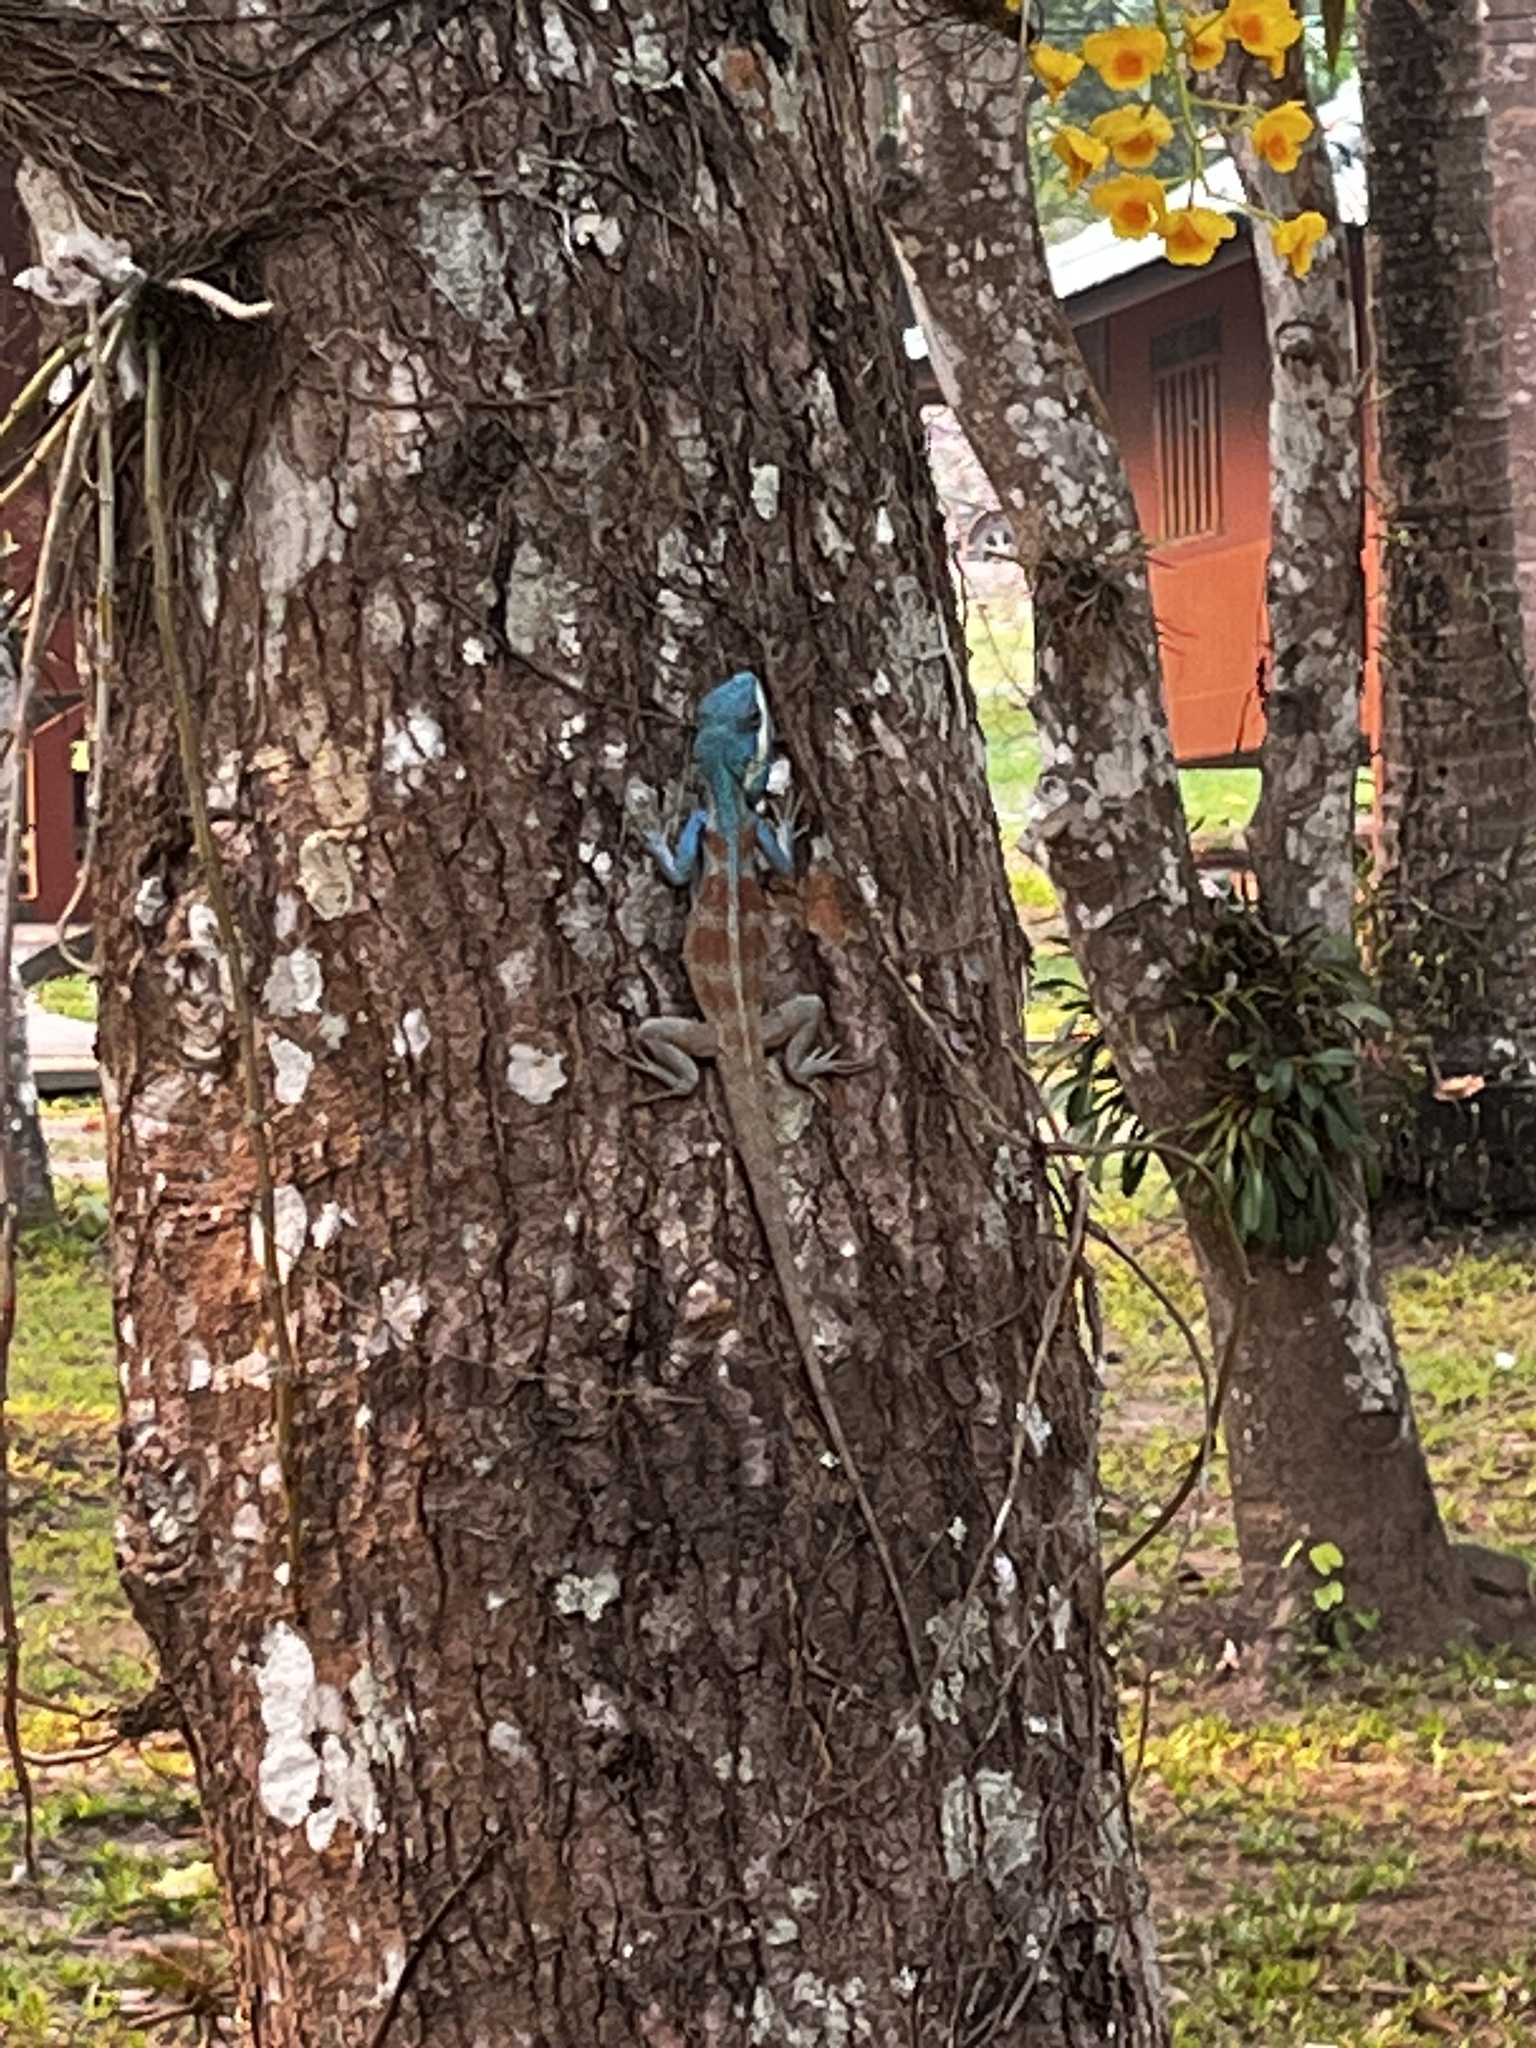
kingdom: Animalia
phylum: Chordata
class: Squamata
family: Agamidae
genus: Calotes
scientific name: Calotes goetzi
